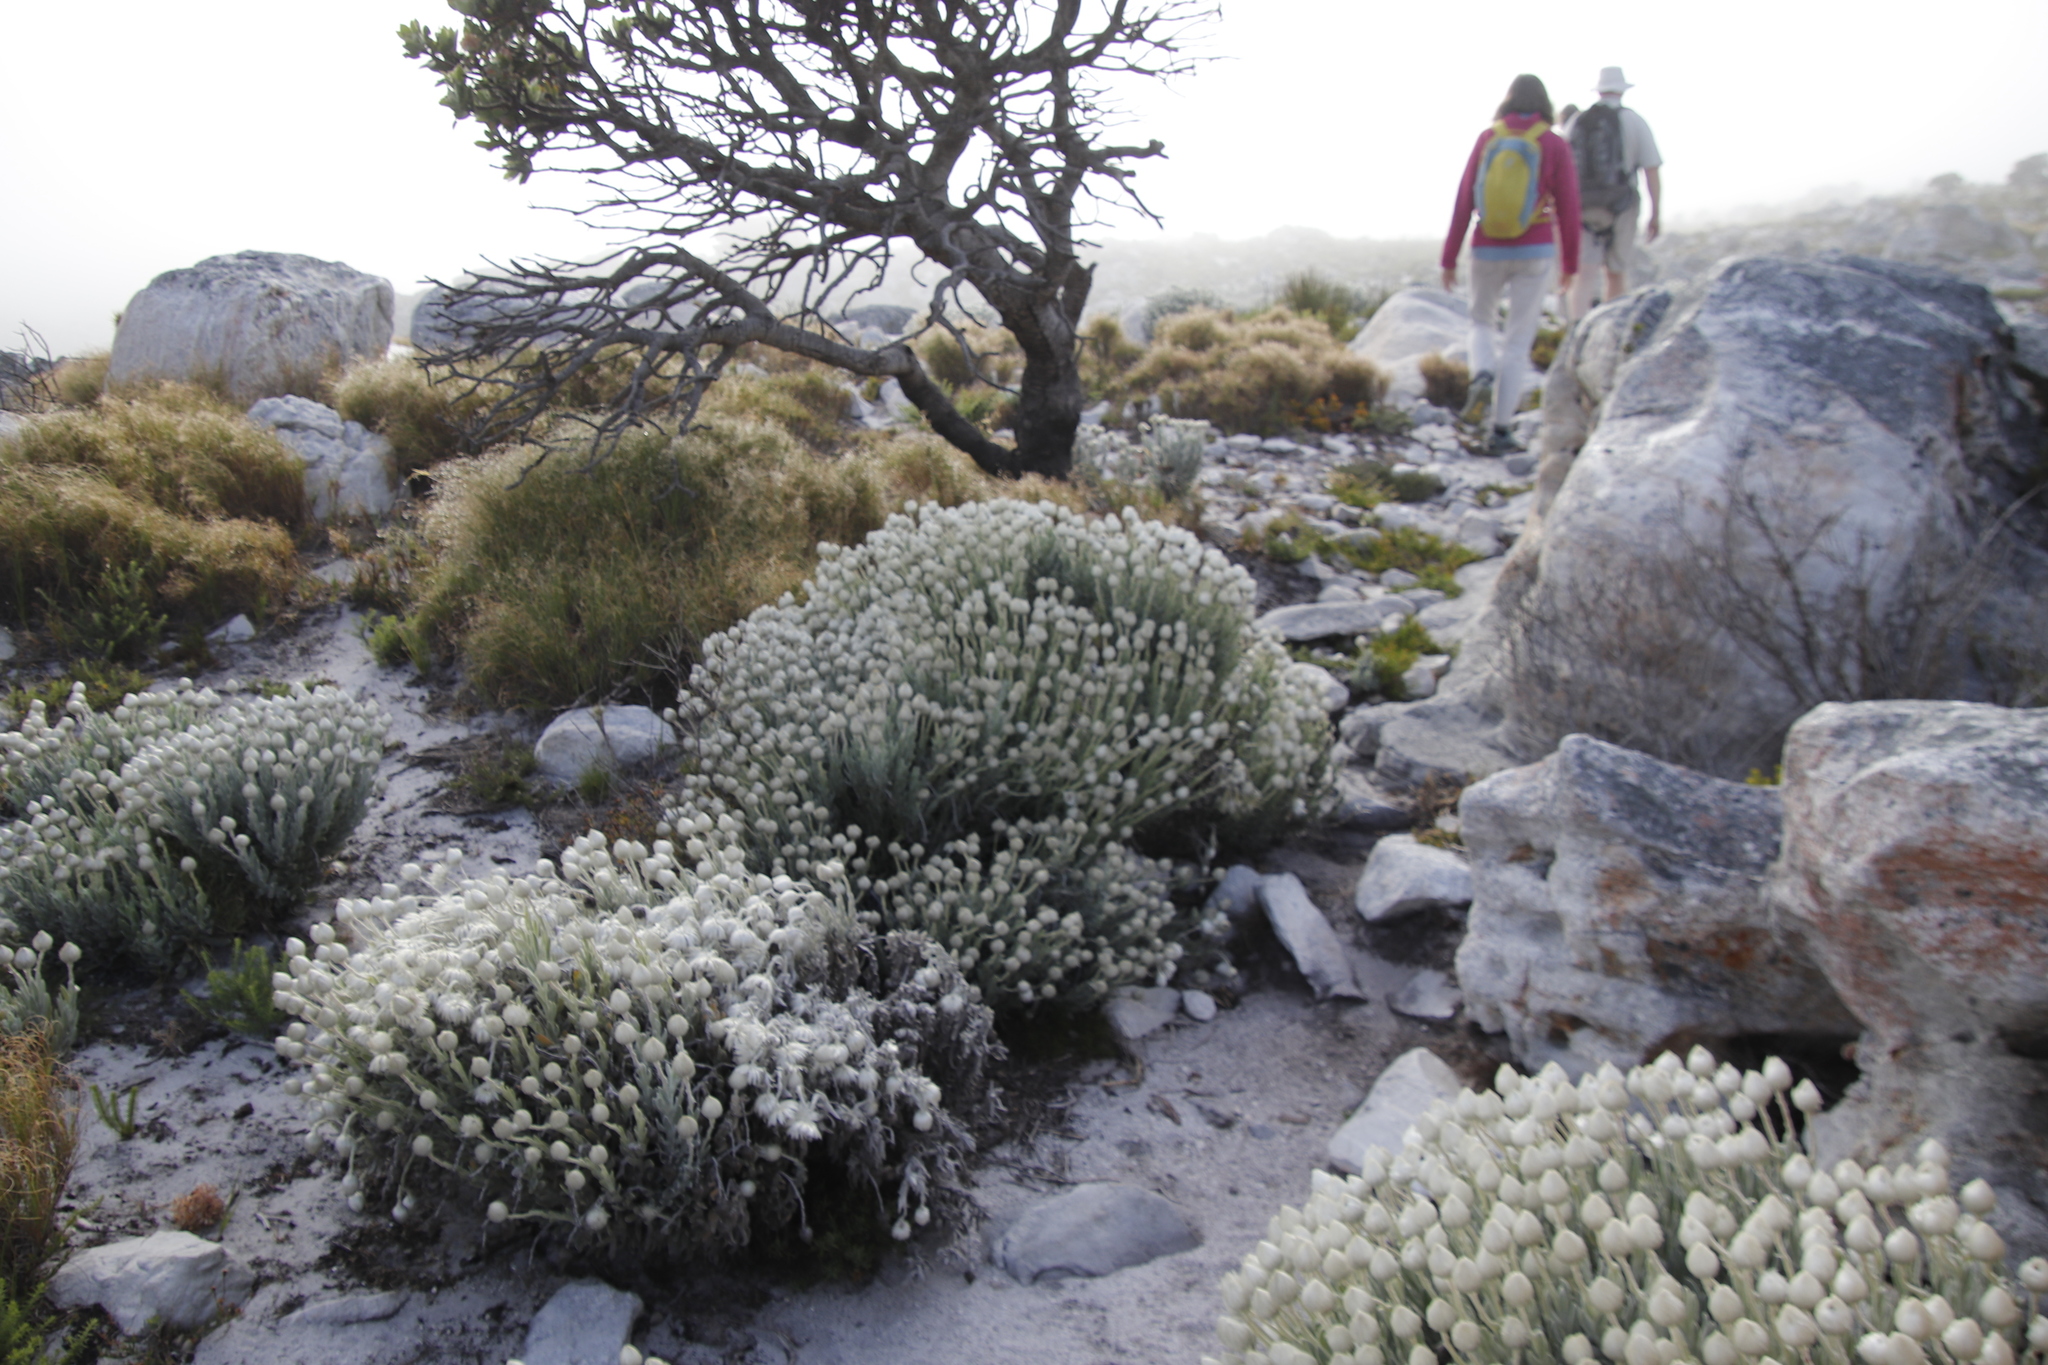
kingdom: Plantae
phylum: Tracheophyta
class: Magnoliopsida
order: Asterales
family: Asteraceae
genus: Syncarpha
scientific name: Syncarpha vestita
